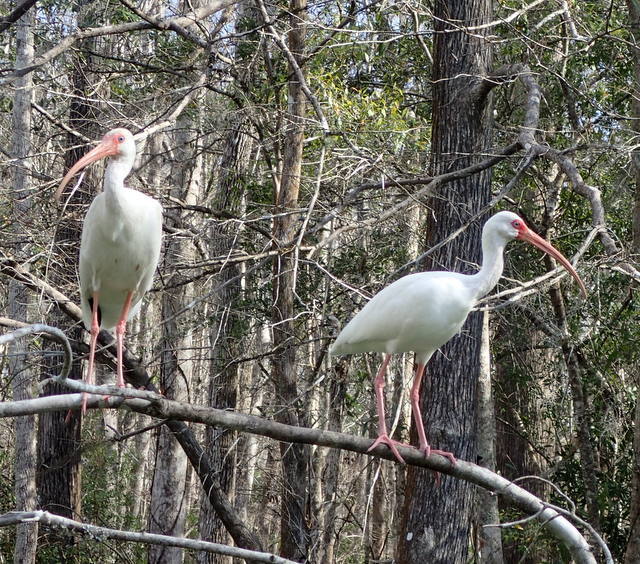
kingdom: Animalia
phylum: Chordata
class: Aves
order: Pelecaniformes
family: Threskiornithidae
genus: Eudocimus
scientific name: Eudocimus albus
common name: White ibis
